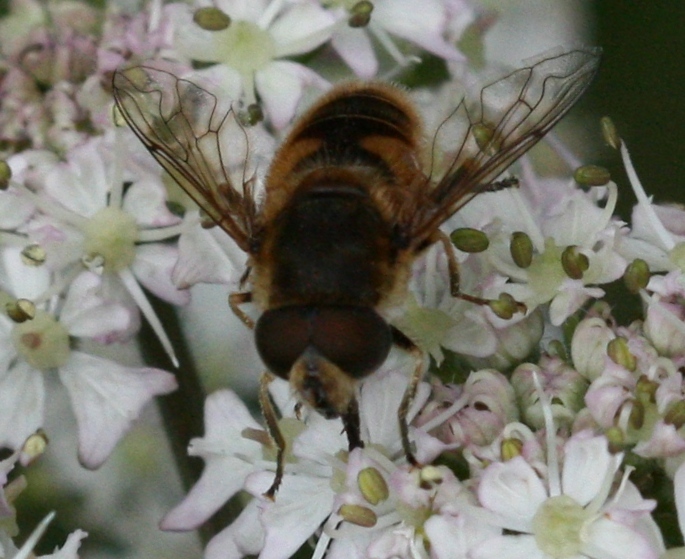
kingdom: Animalia
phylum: Arthropoda
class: Insecta
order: Diptera
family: Syrphidae
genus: Eristalis
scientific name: Eristalis nemorum
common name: Orange-spined drone fly
